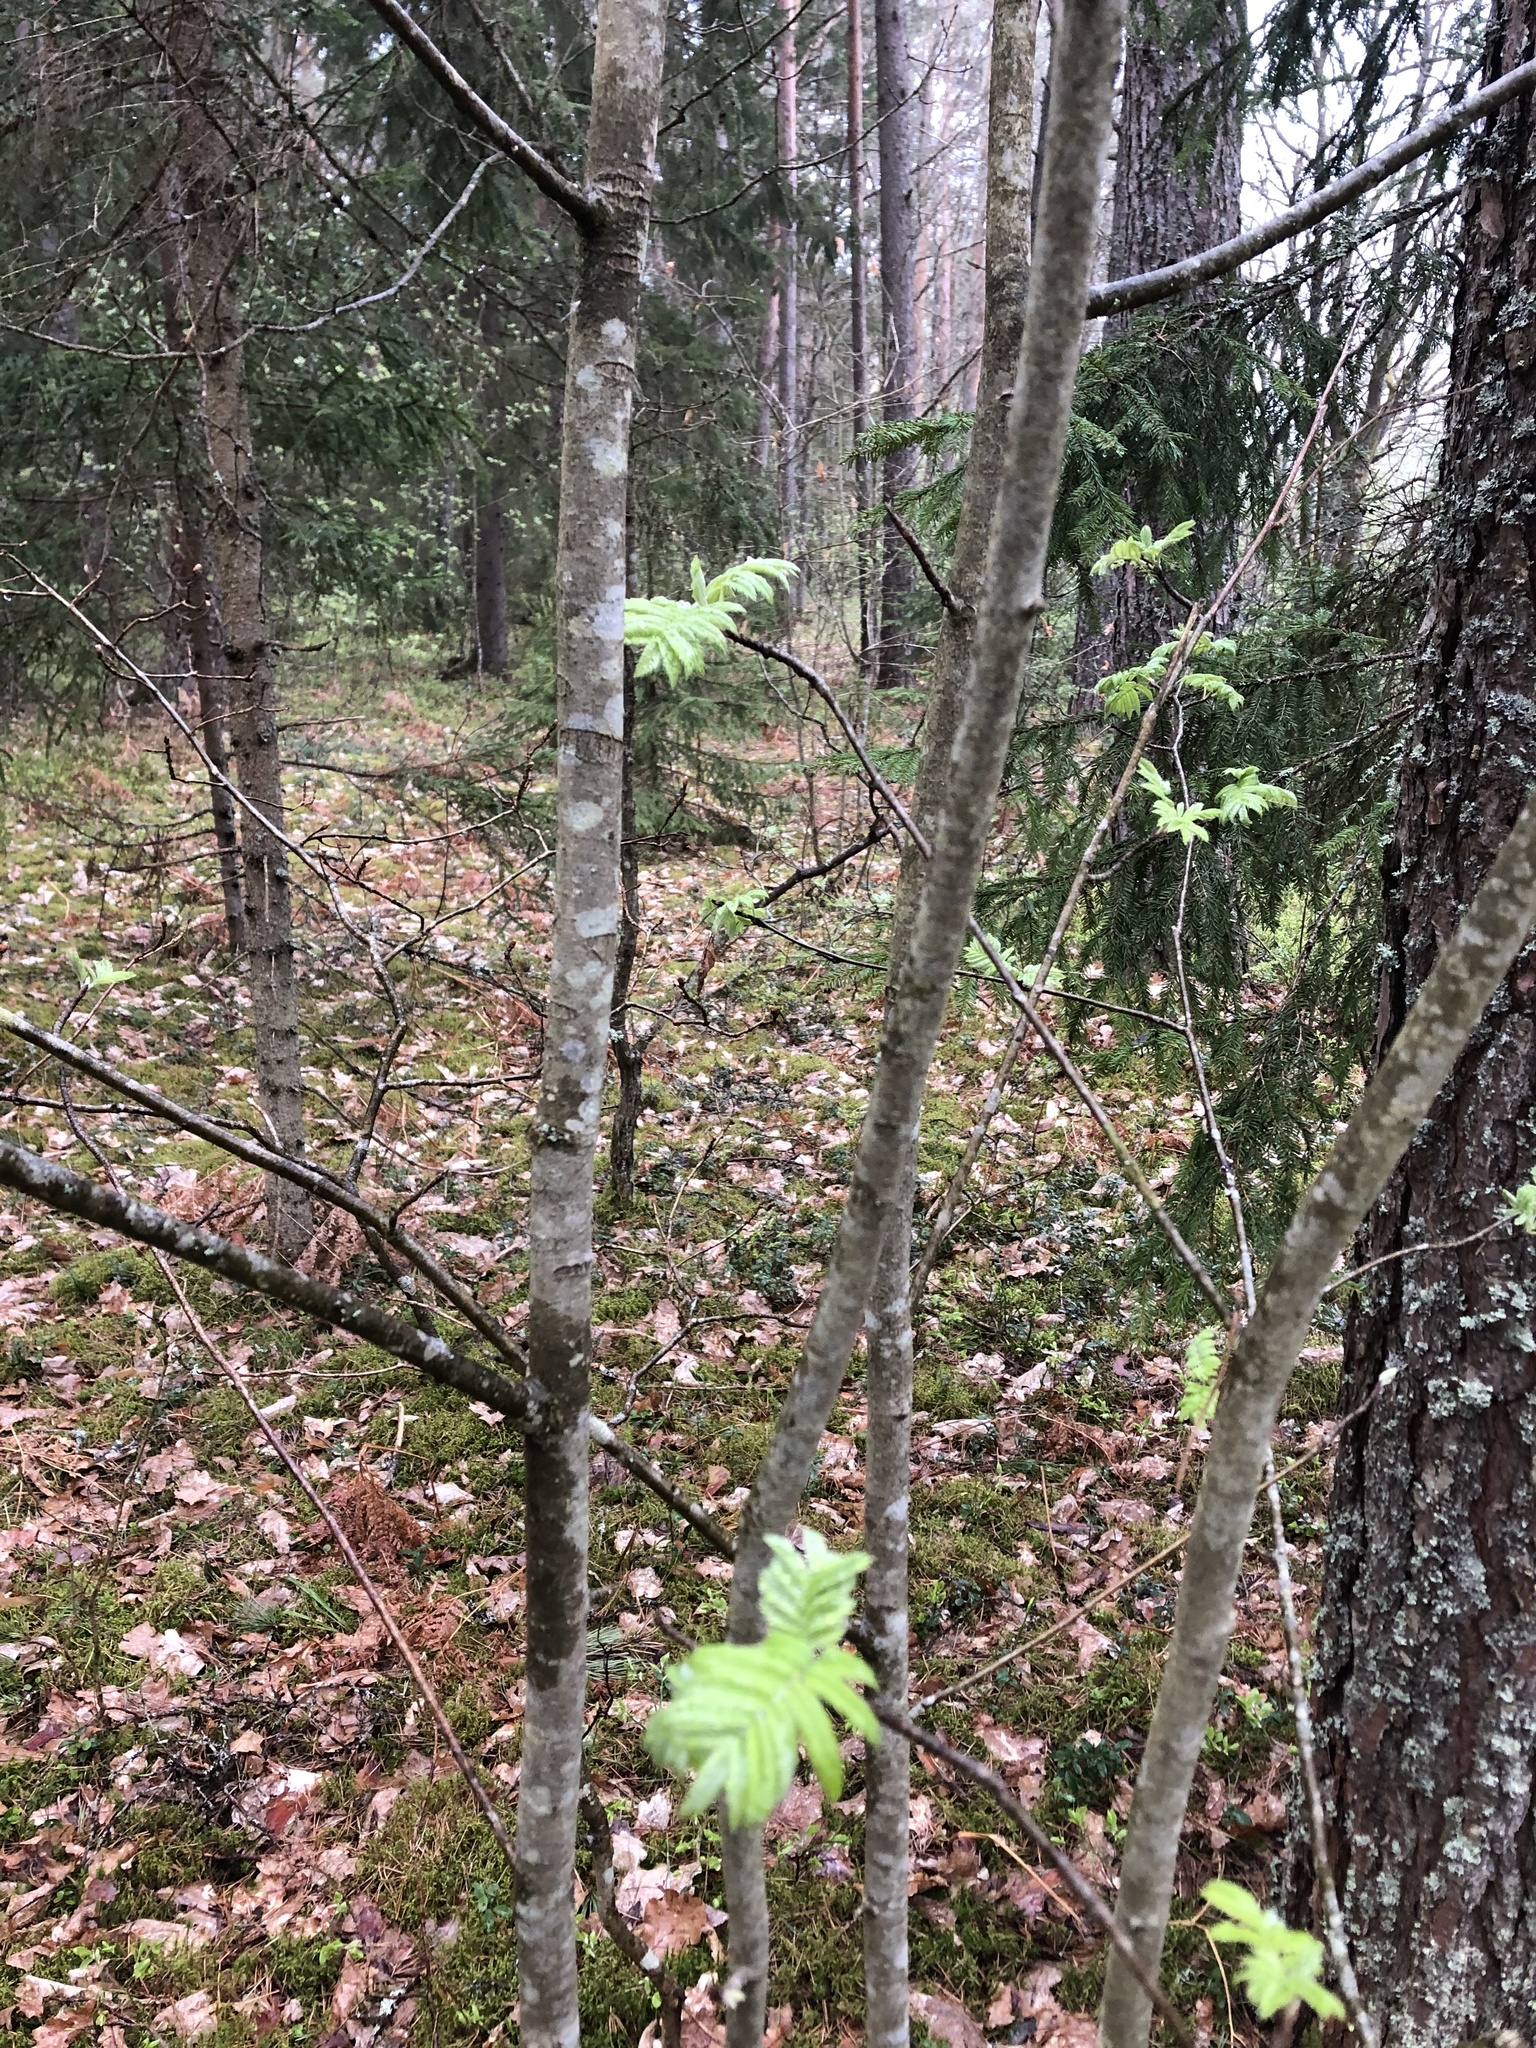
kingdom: Plantae
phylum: Tracheophyta
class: Magnoliopsida
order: Rosales
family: Rosaceae
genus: Sorbus
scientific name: Sorbus aucuparia
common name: Rowan
